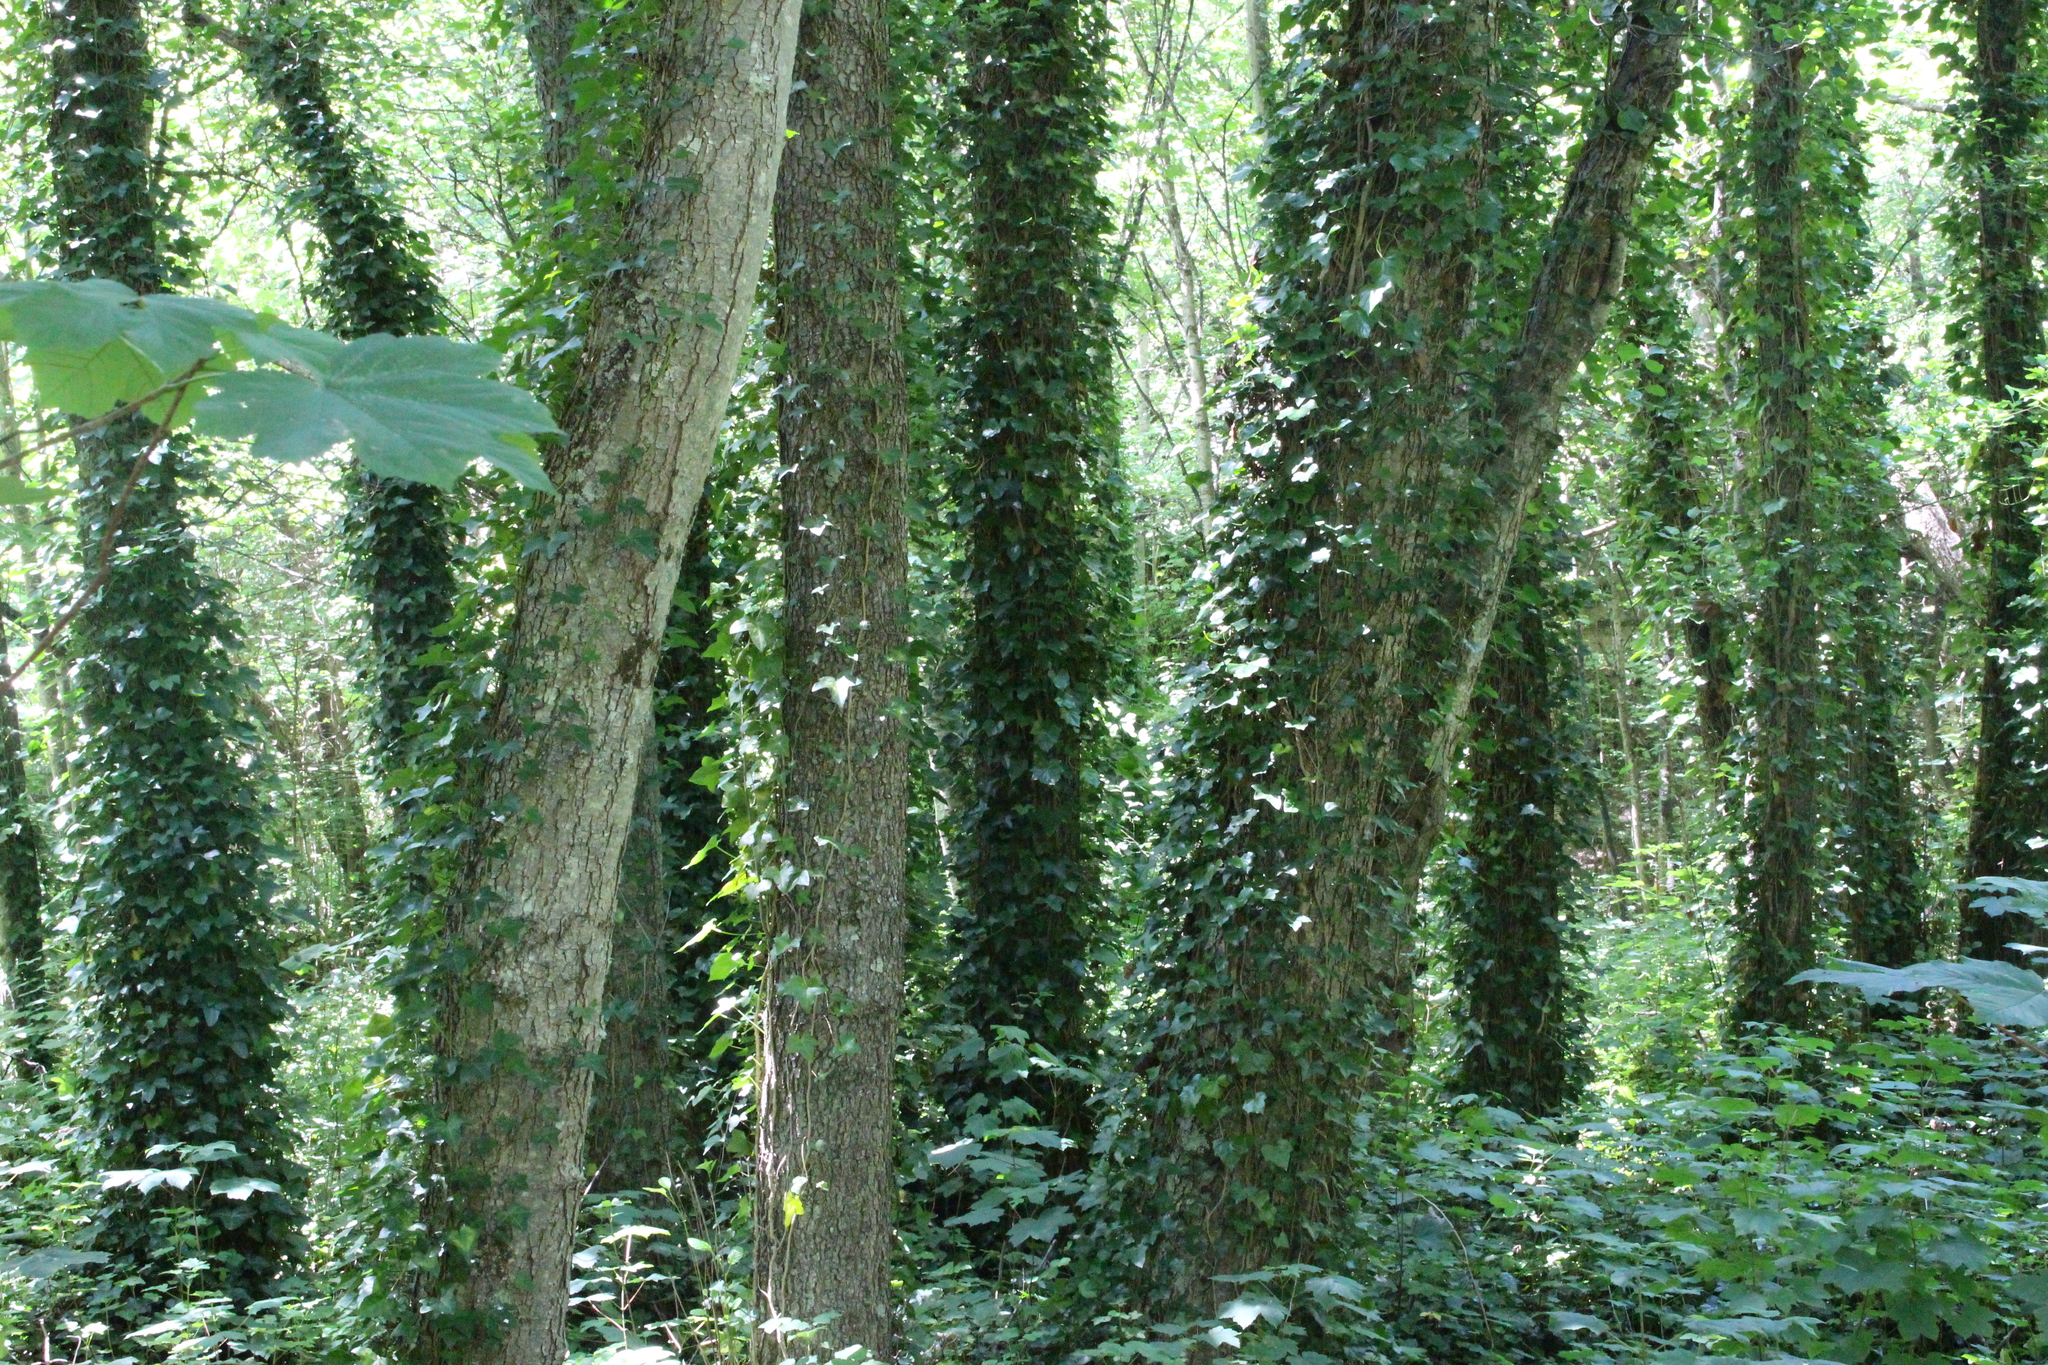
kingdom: Plantae
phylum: Tracheophyta
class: Magnoliopsida
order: Apiales
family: Araliaceae
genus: Hedera
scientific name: Hedera helix
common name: Ivy
